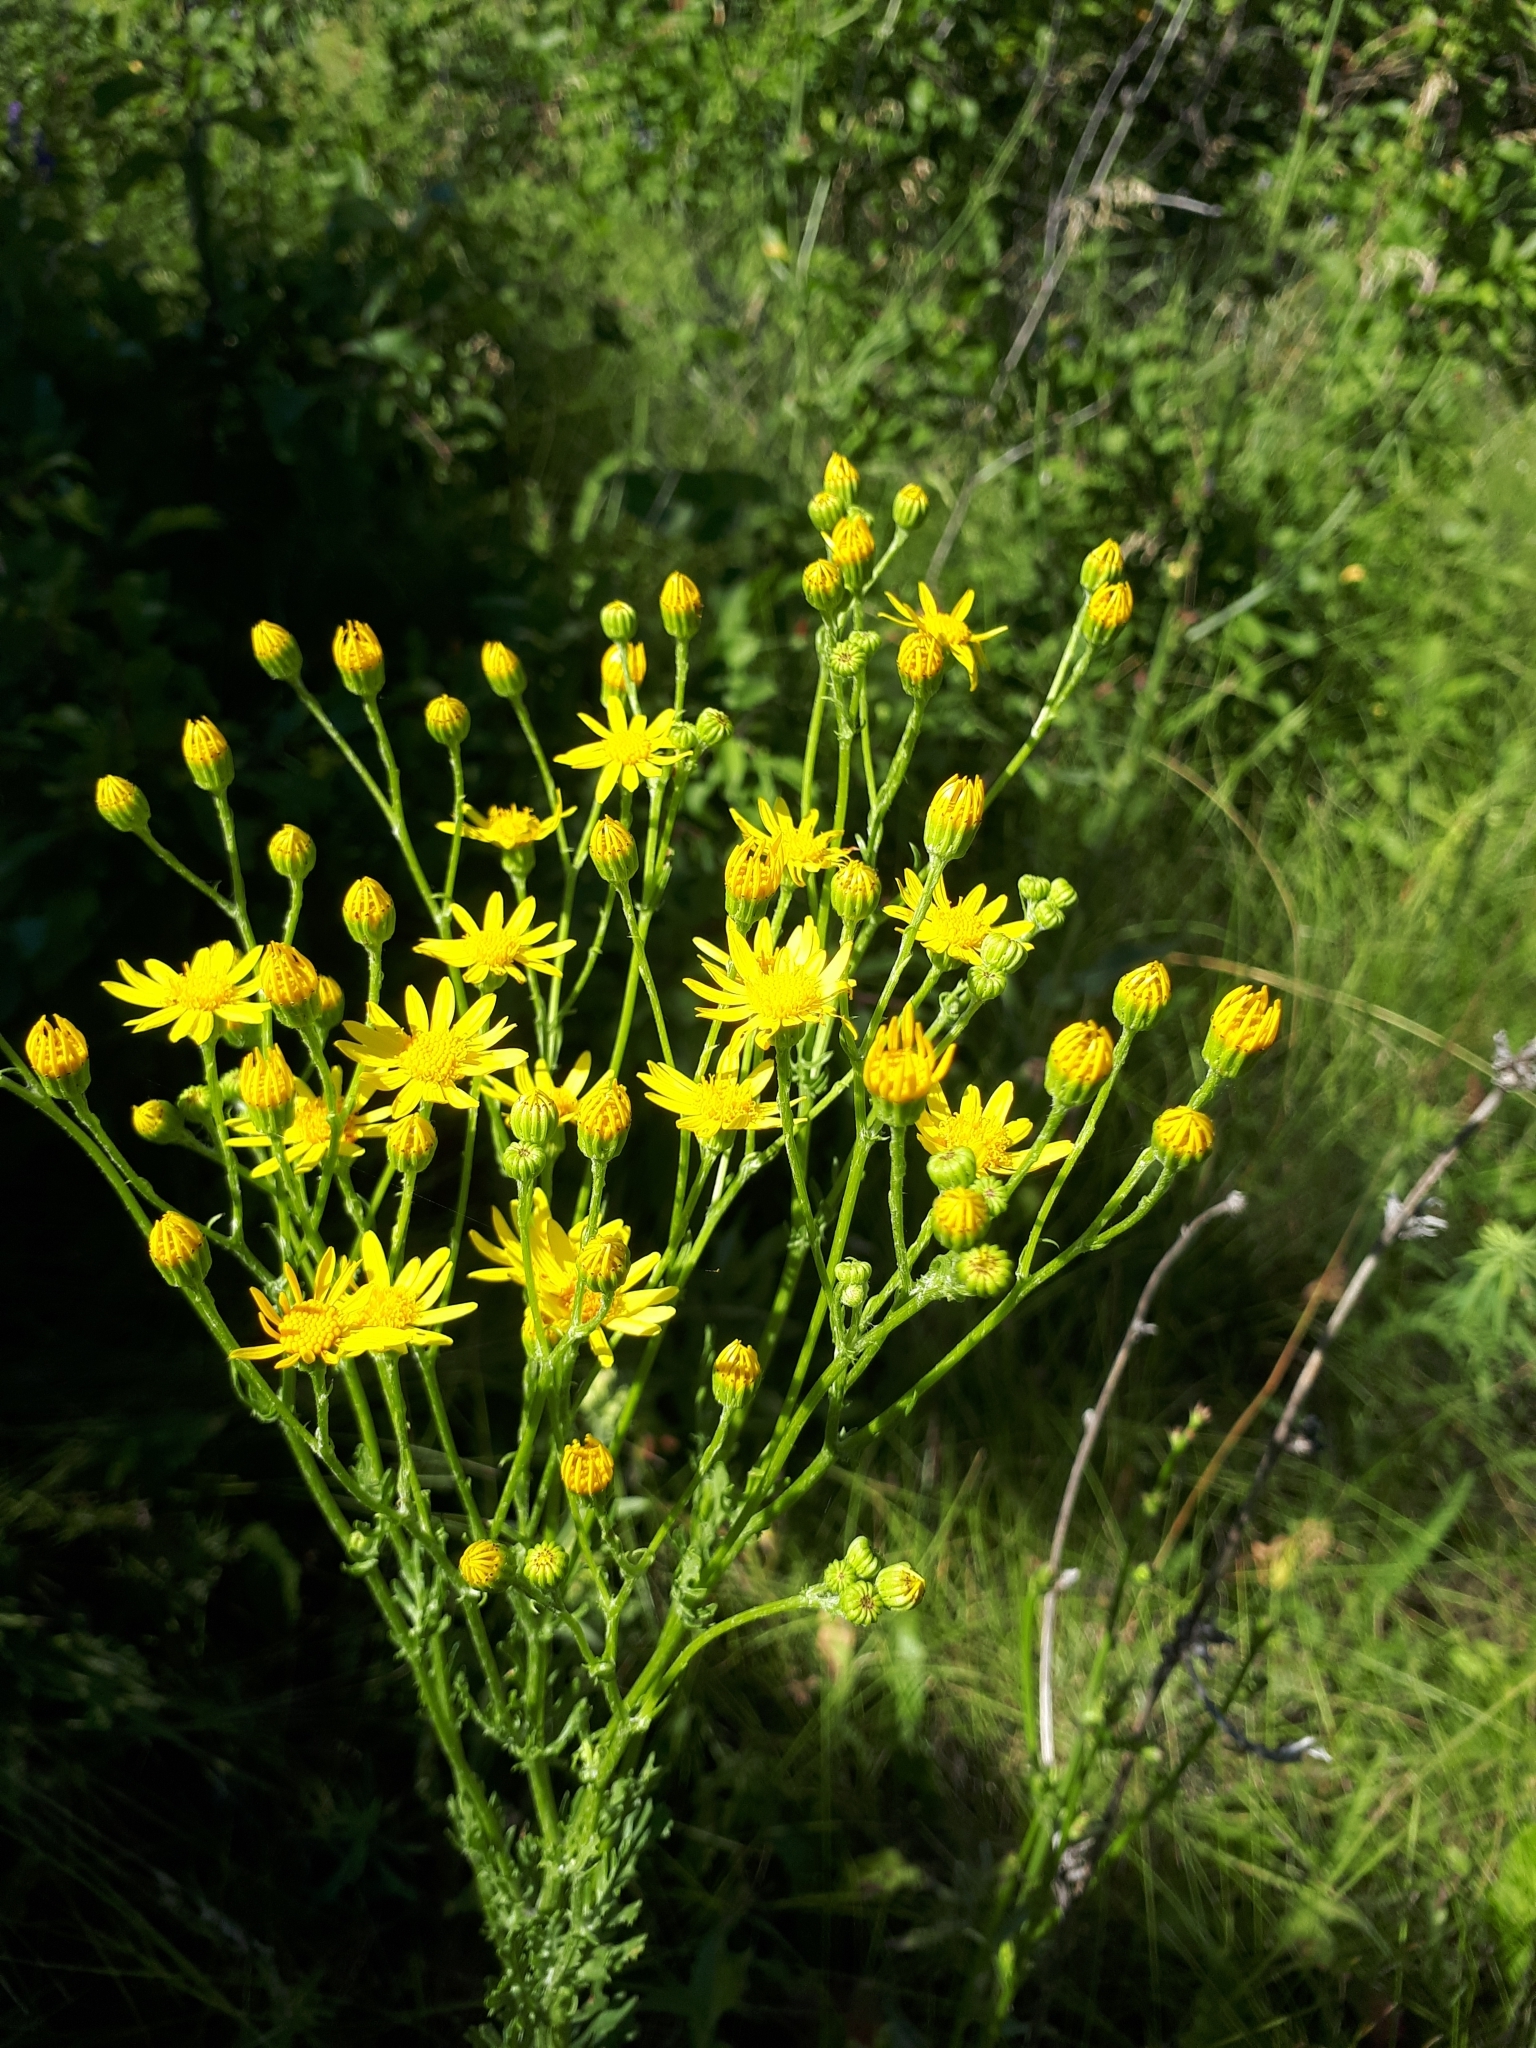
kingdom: Plantae
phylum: Tracheophyta
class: Magnoliopsida
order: Asterales
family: Asteraceae
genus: Jacobaea
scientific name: Jacobaea vulgaris
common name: Stinking willie
